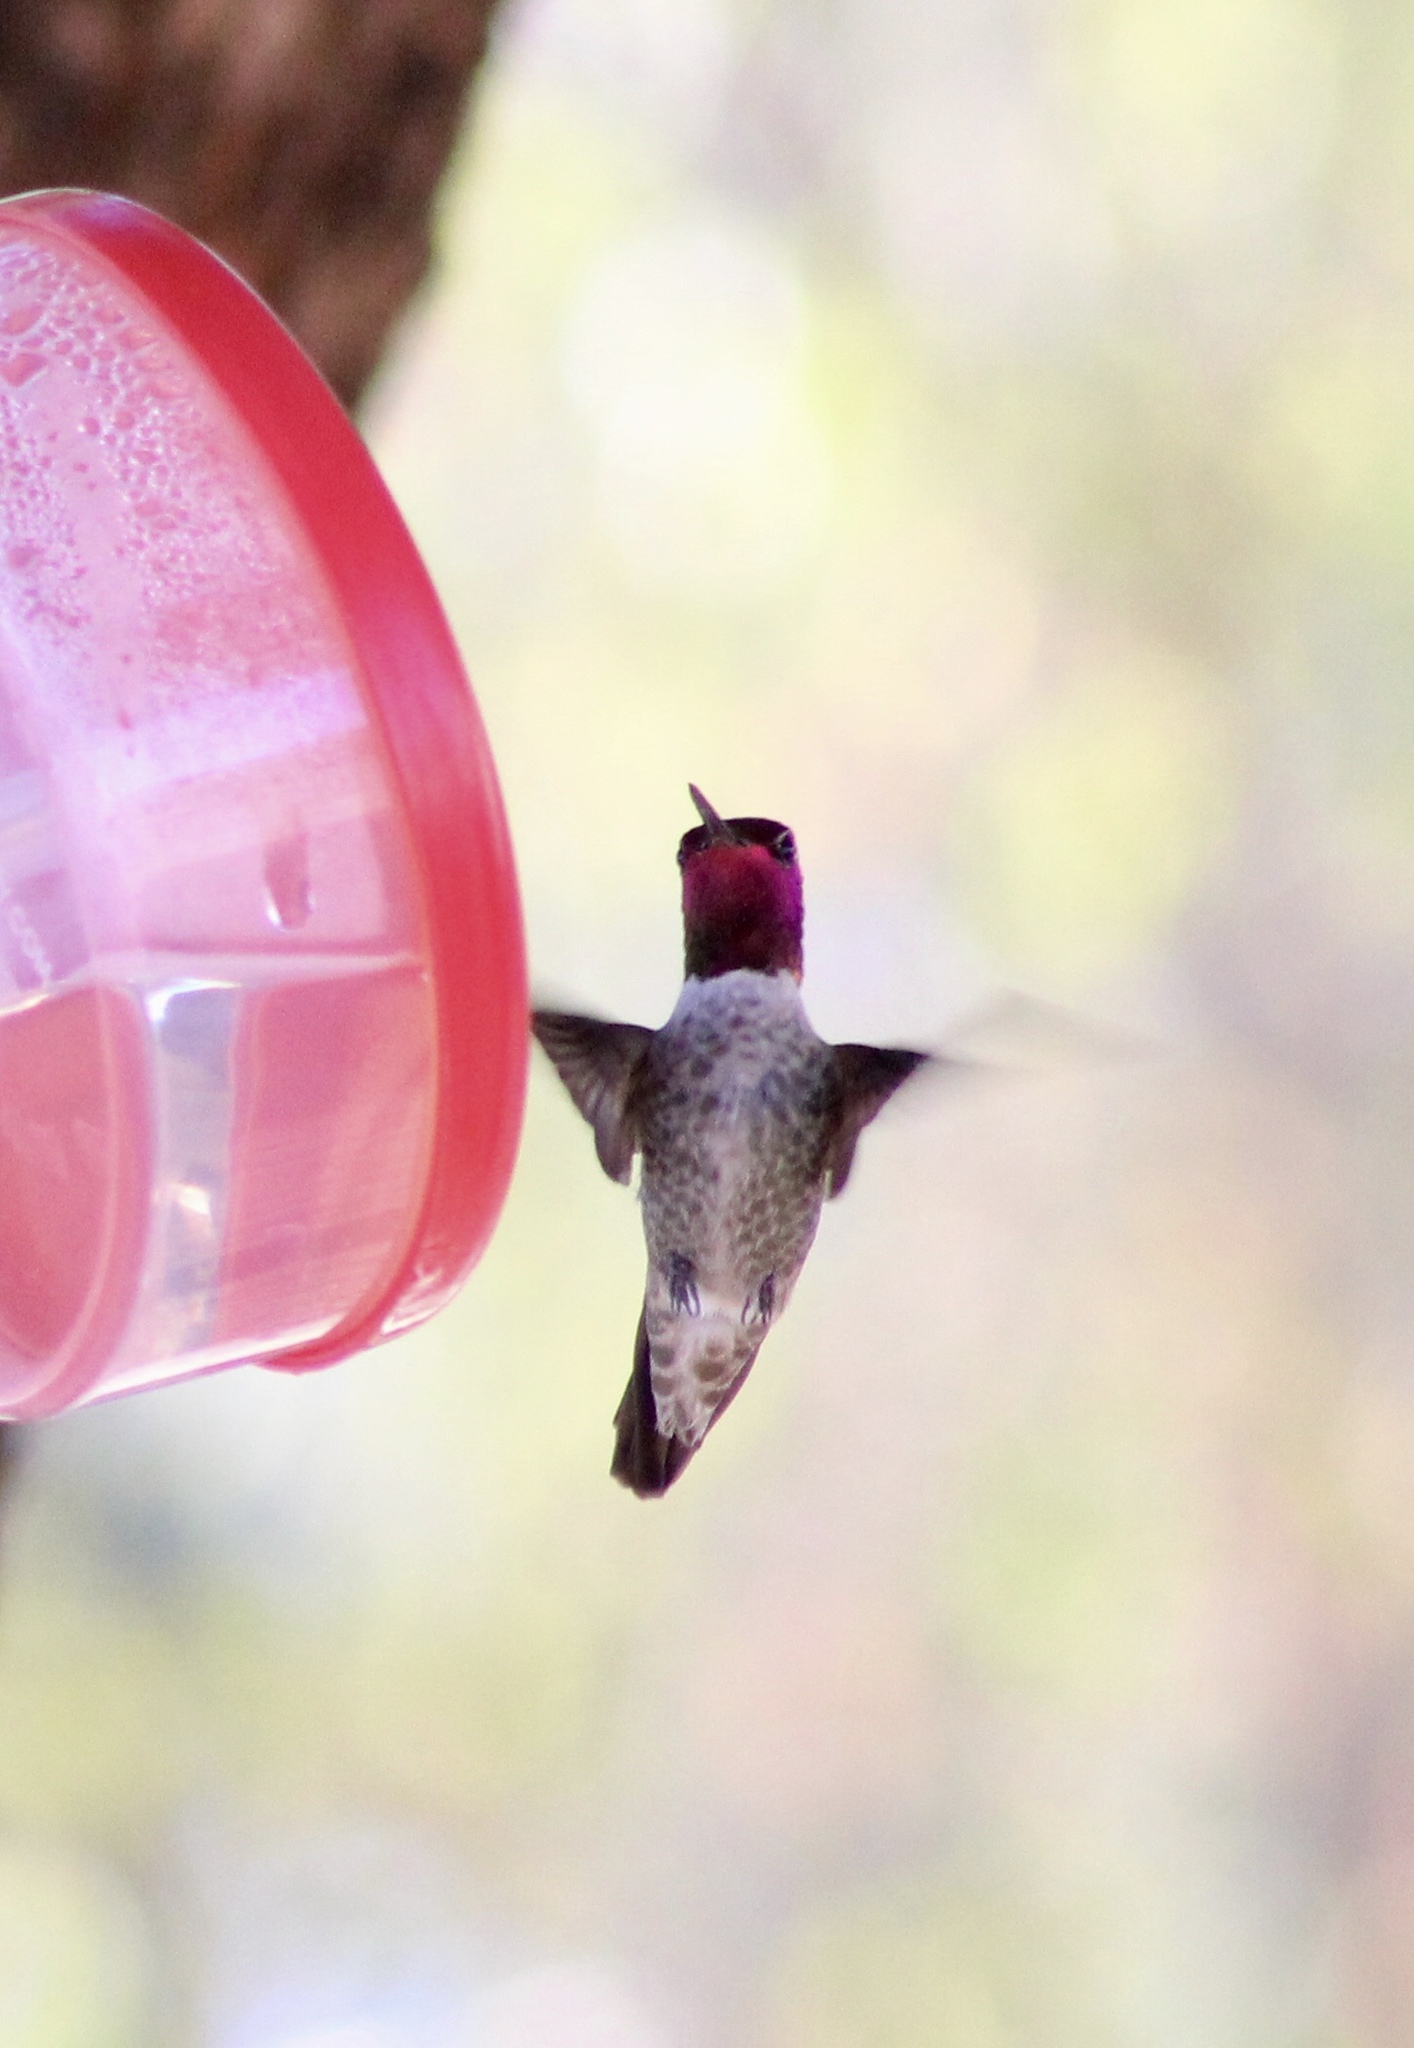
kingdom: Animalia
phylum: Chordata
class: Aves
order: Apodiformes
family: Trochilidae
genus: Calypte
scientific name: Calypte anna
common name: Anna's hummingbird
